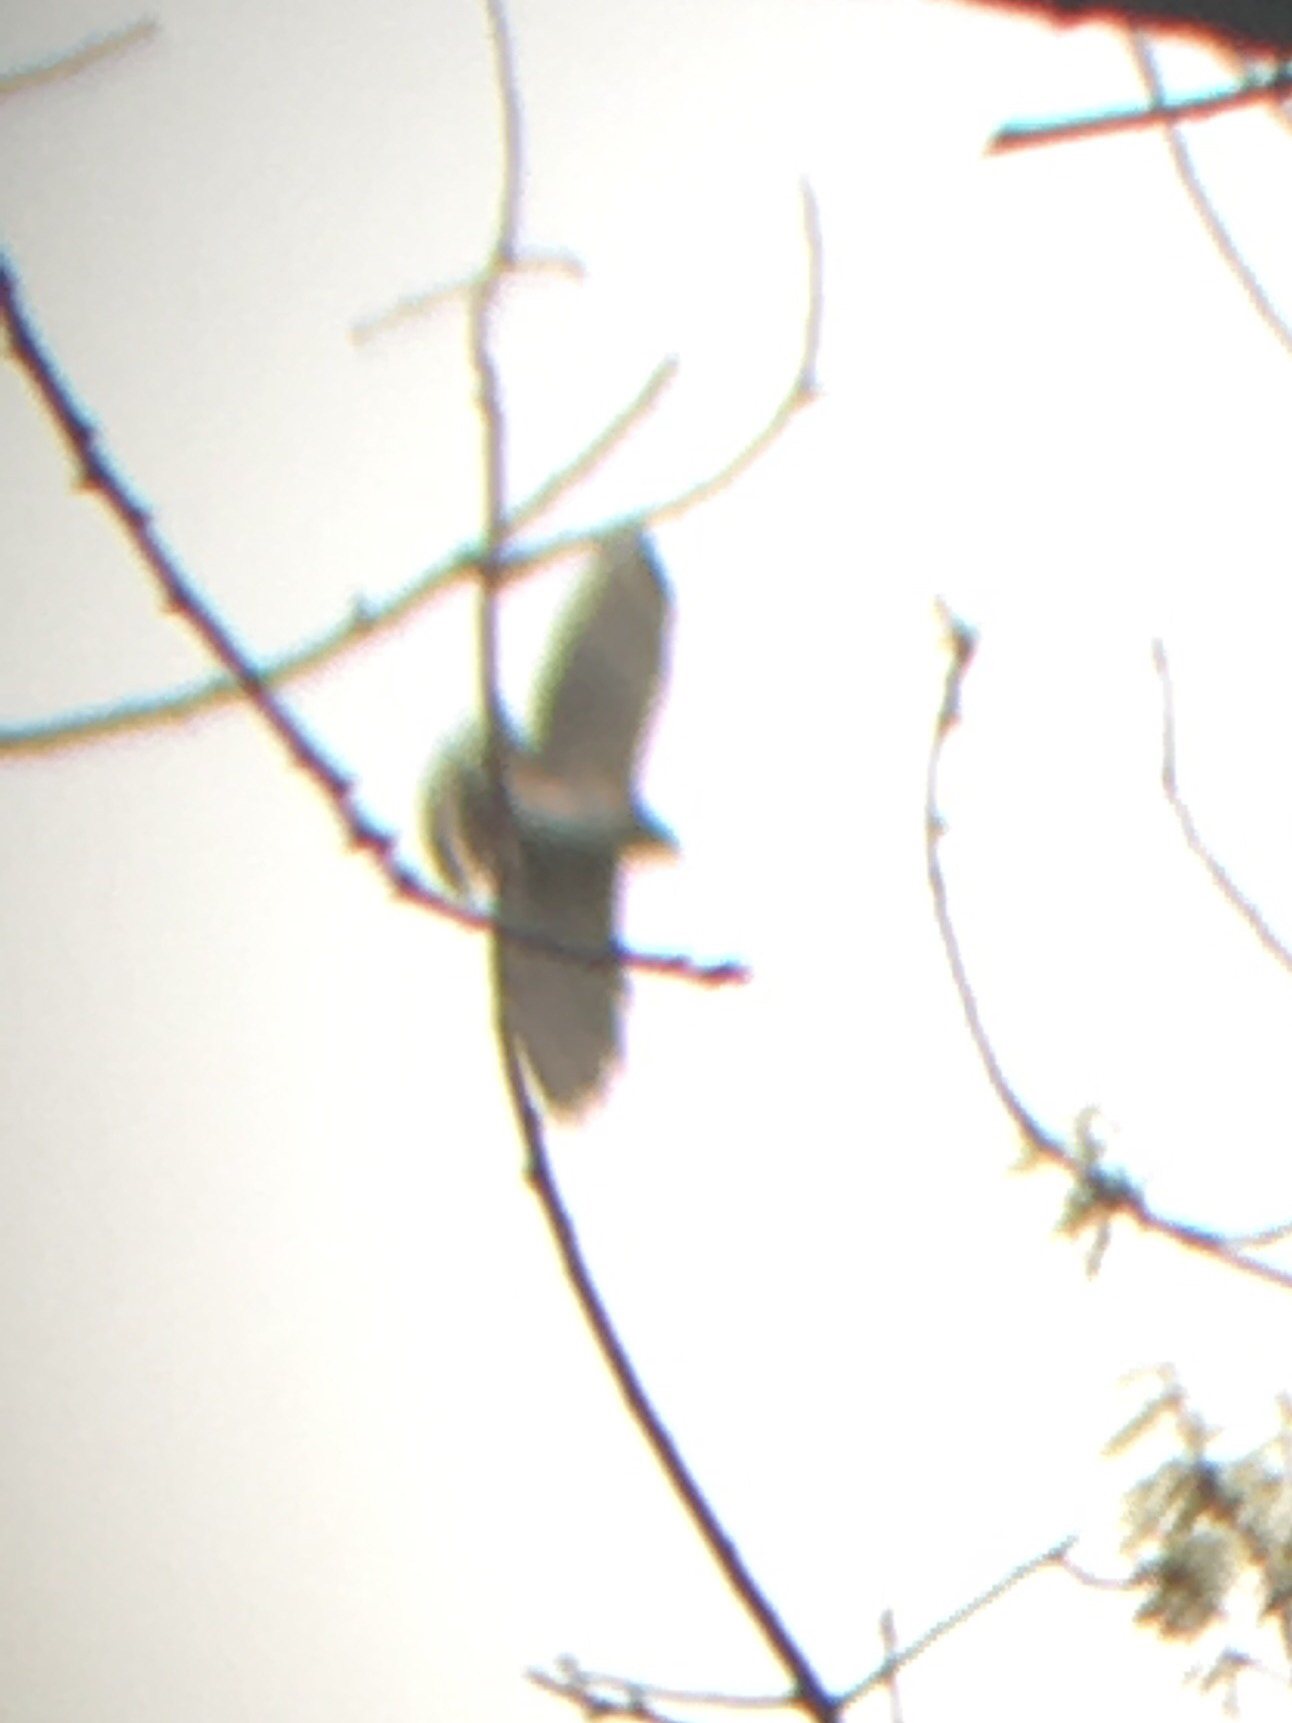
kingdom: Animalia
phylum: Chordata
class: Aves
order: Accipitriformes
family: Accipitridae
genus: Buteo
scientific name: Buteo platypterus
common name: Broad-winged hawk
